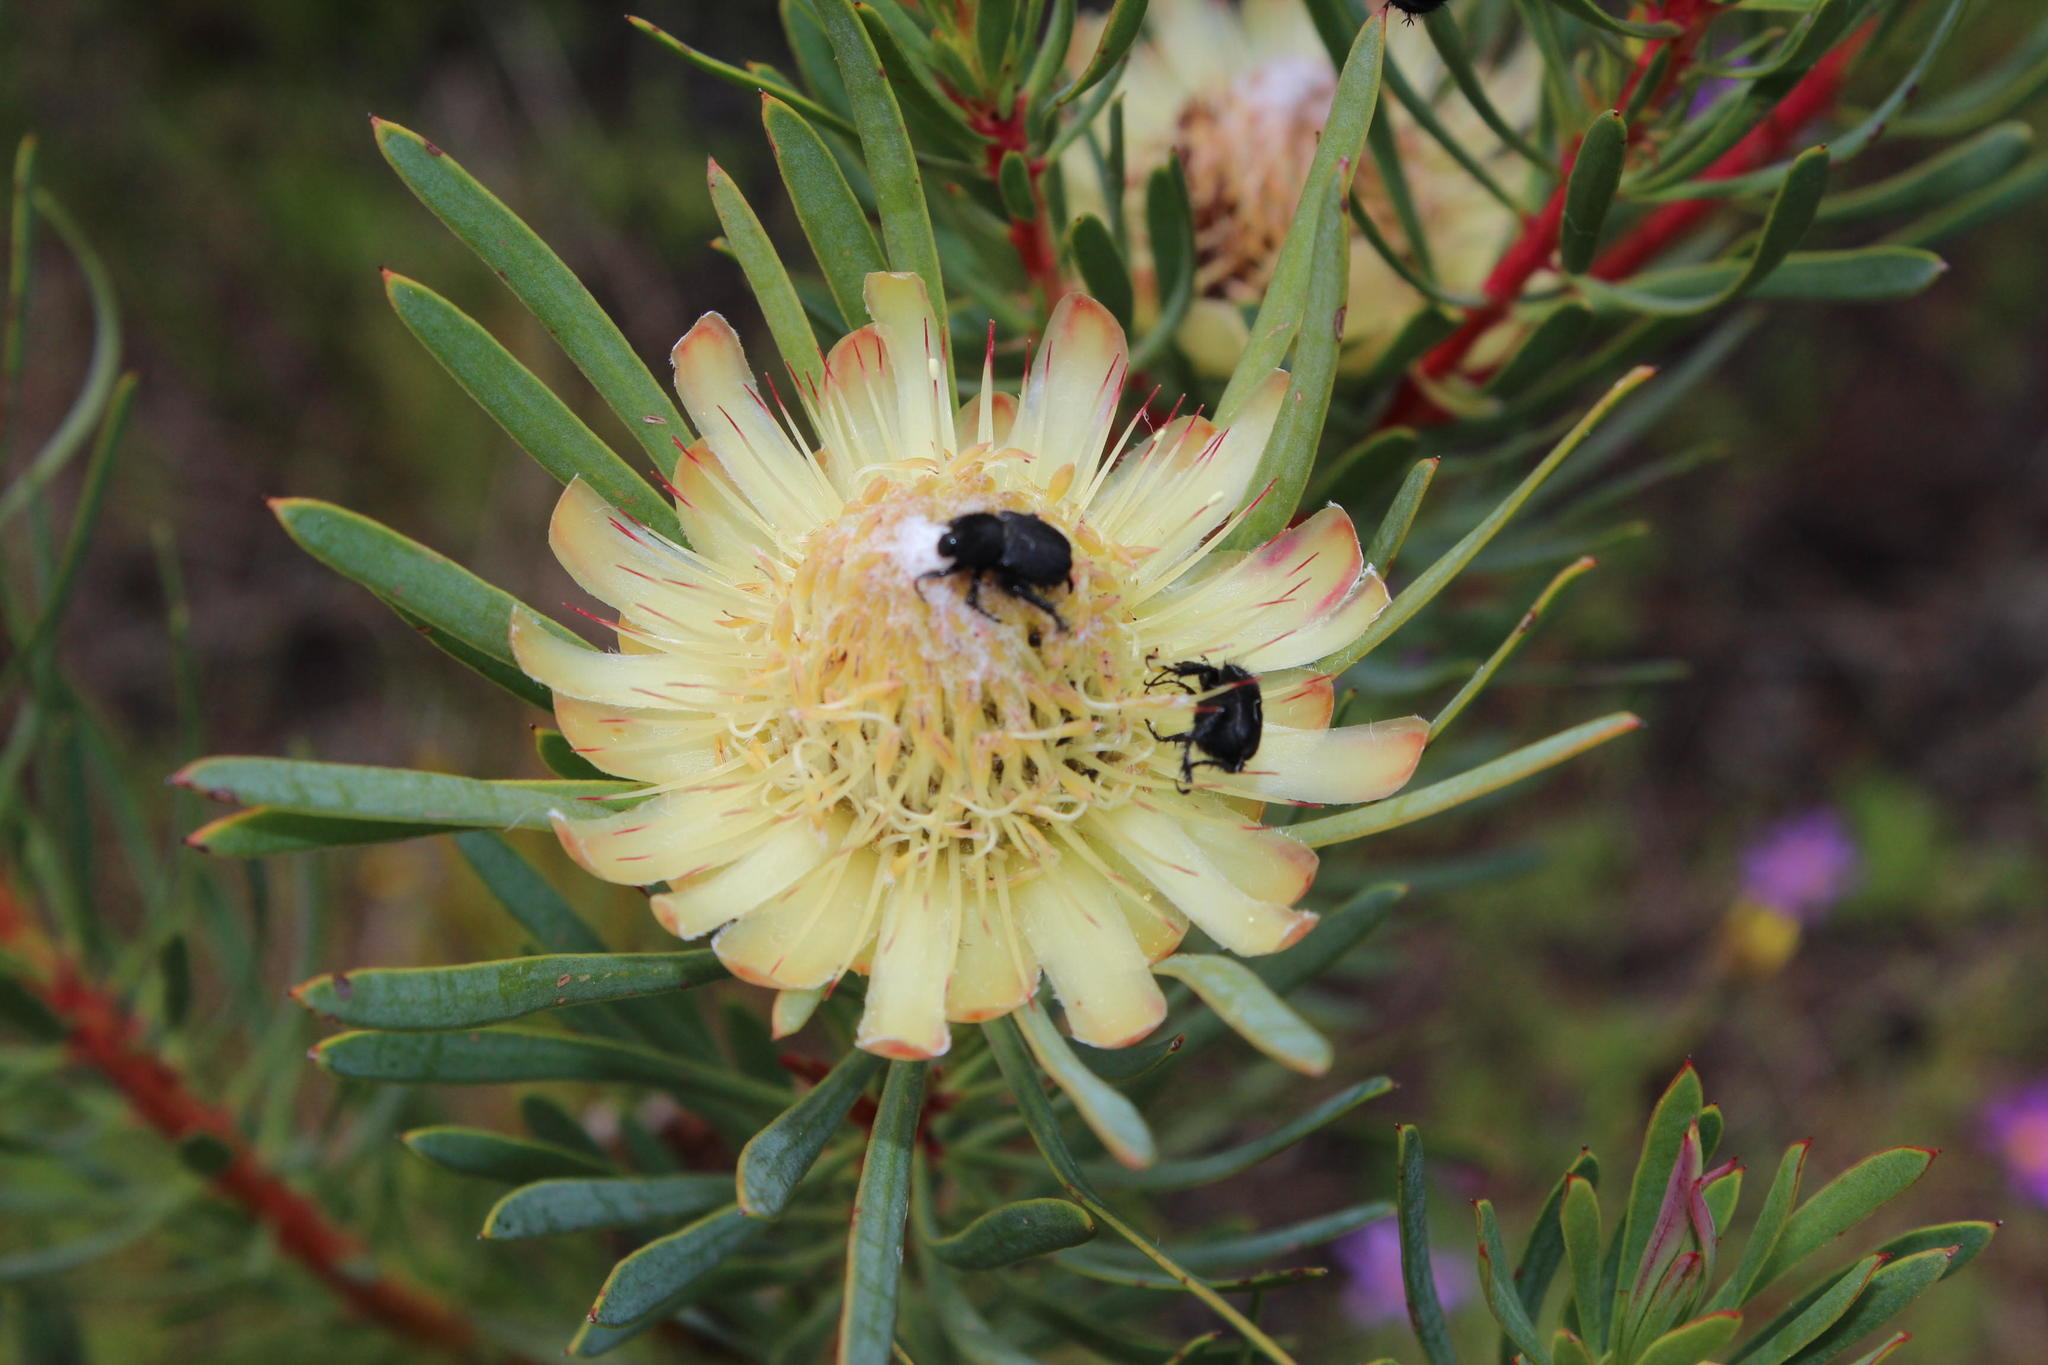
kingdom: Plantae
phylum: Tracheophyta
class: Magnoliopsida
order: Proteales
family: Proteaceae
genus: Protea
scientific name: Protea scolymocephala
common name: Thistle sugarbush
